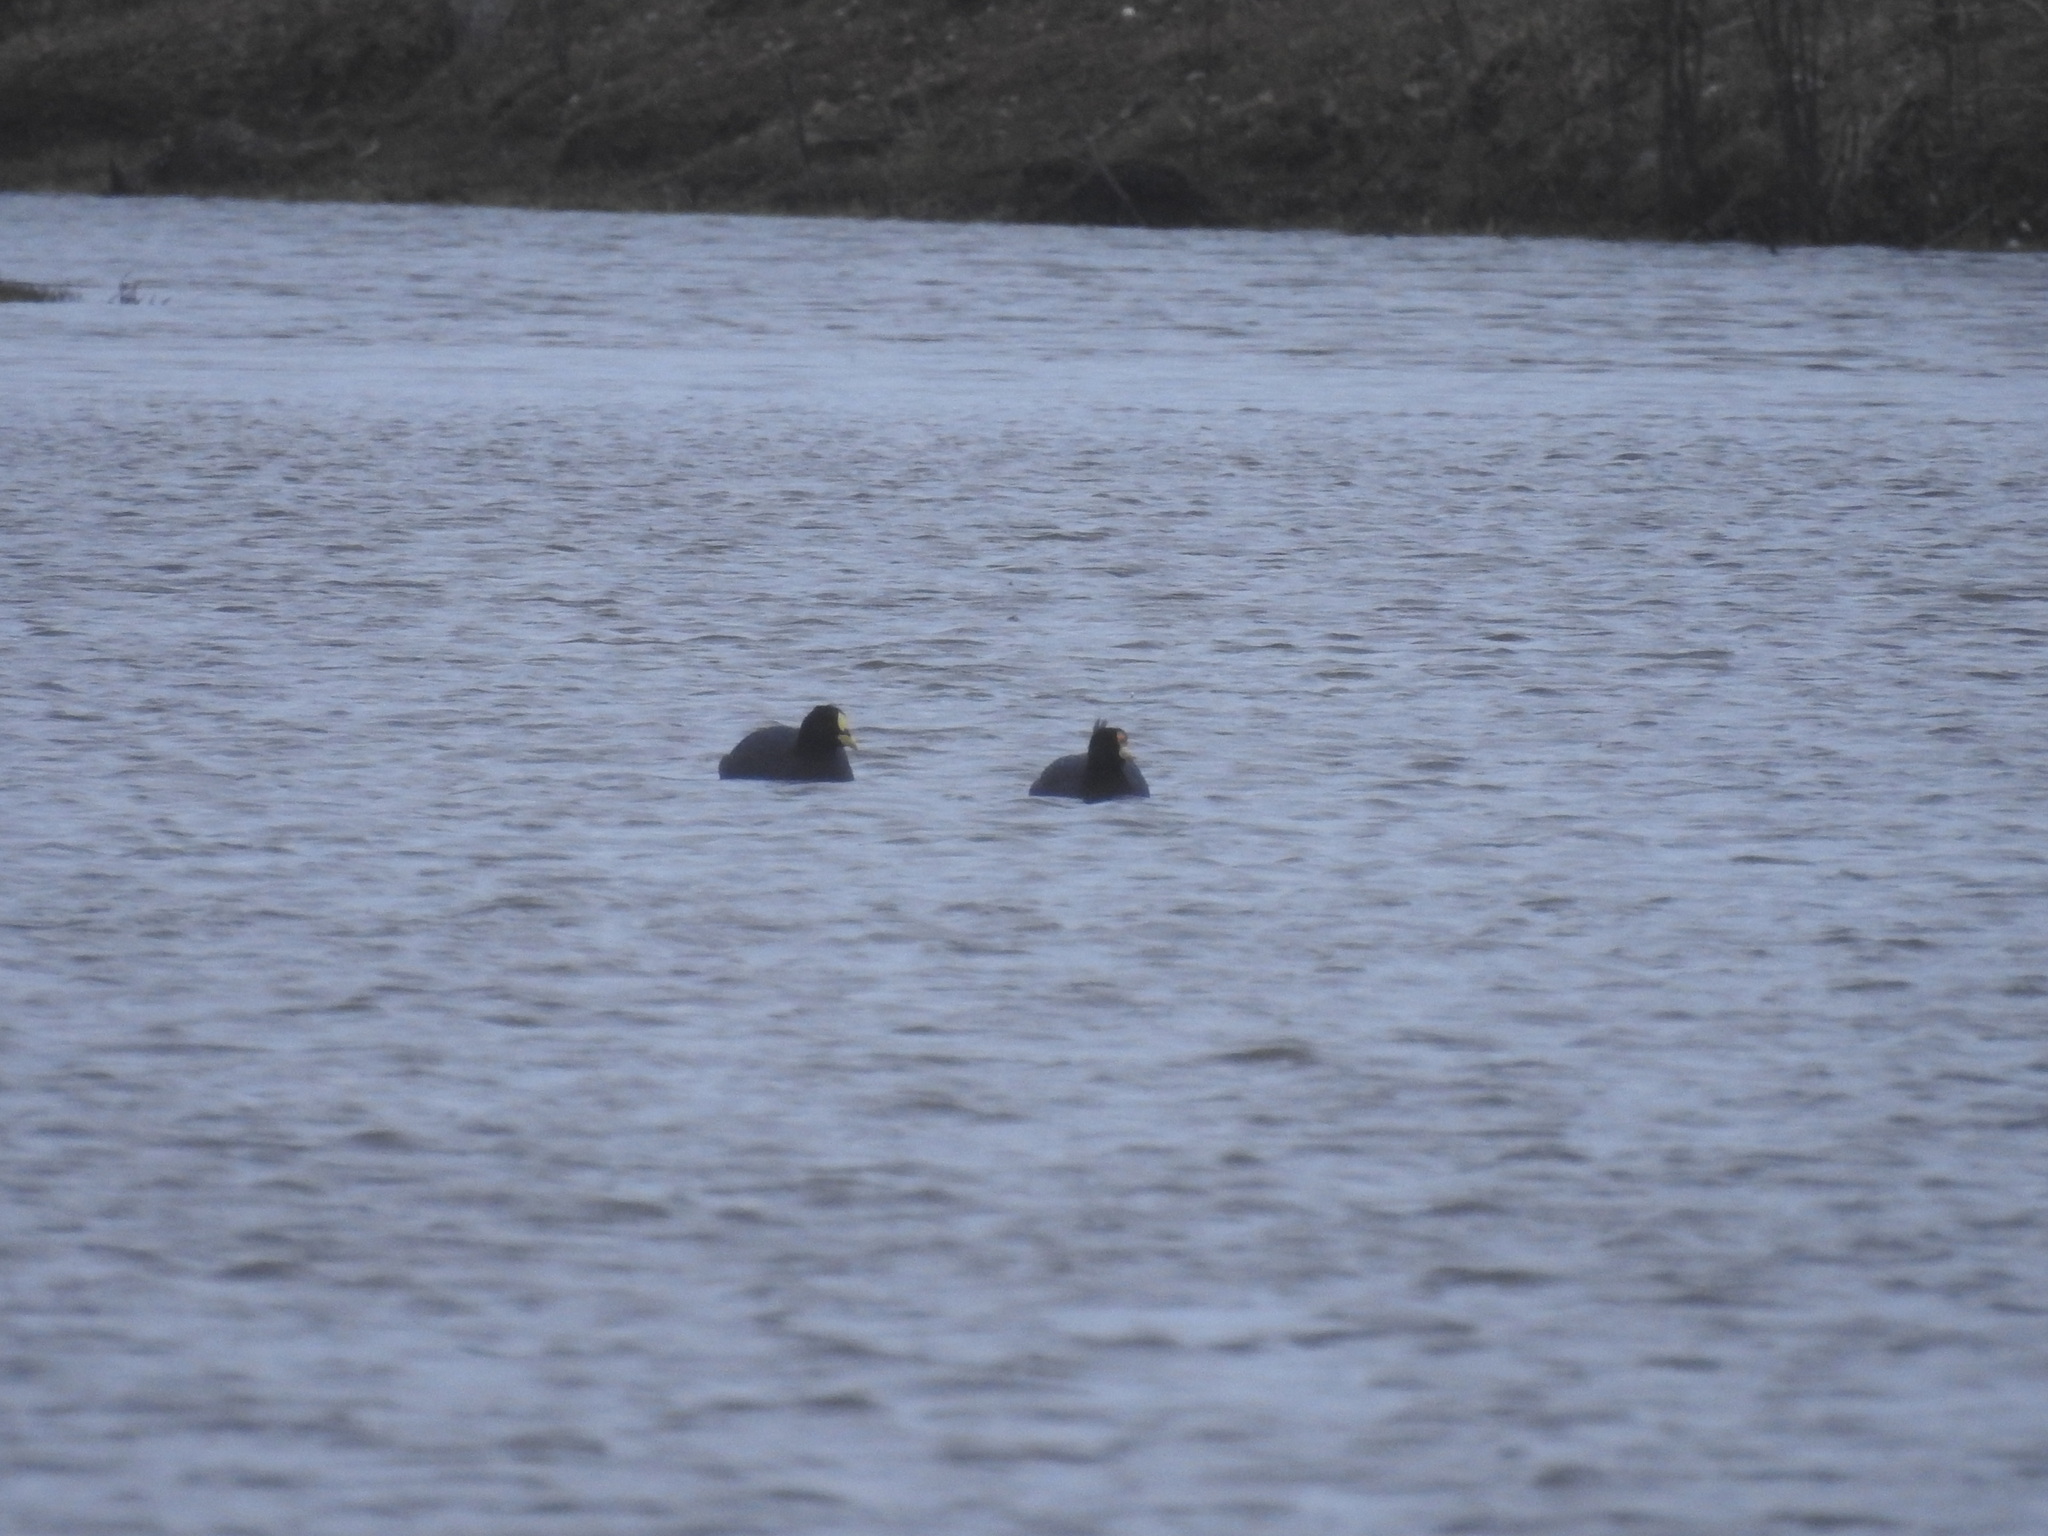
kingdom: Animalia
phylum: Chordata
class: Aves
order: Gruiformes
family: Rallidae
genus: Fulica
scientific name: Fulica armillata
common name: Red-gartered coot
